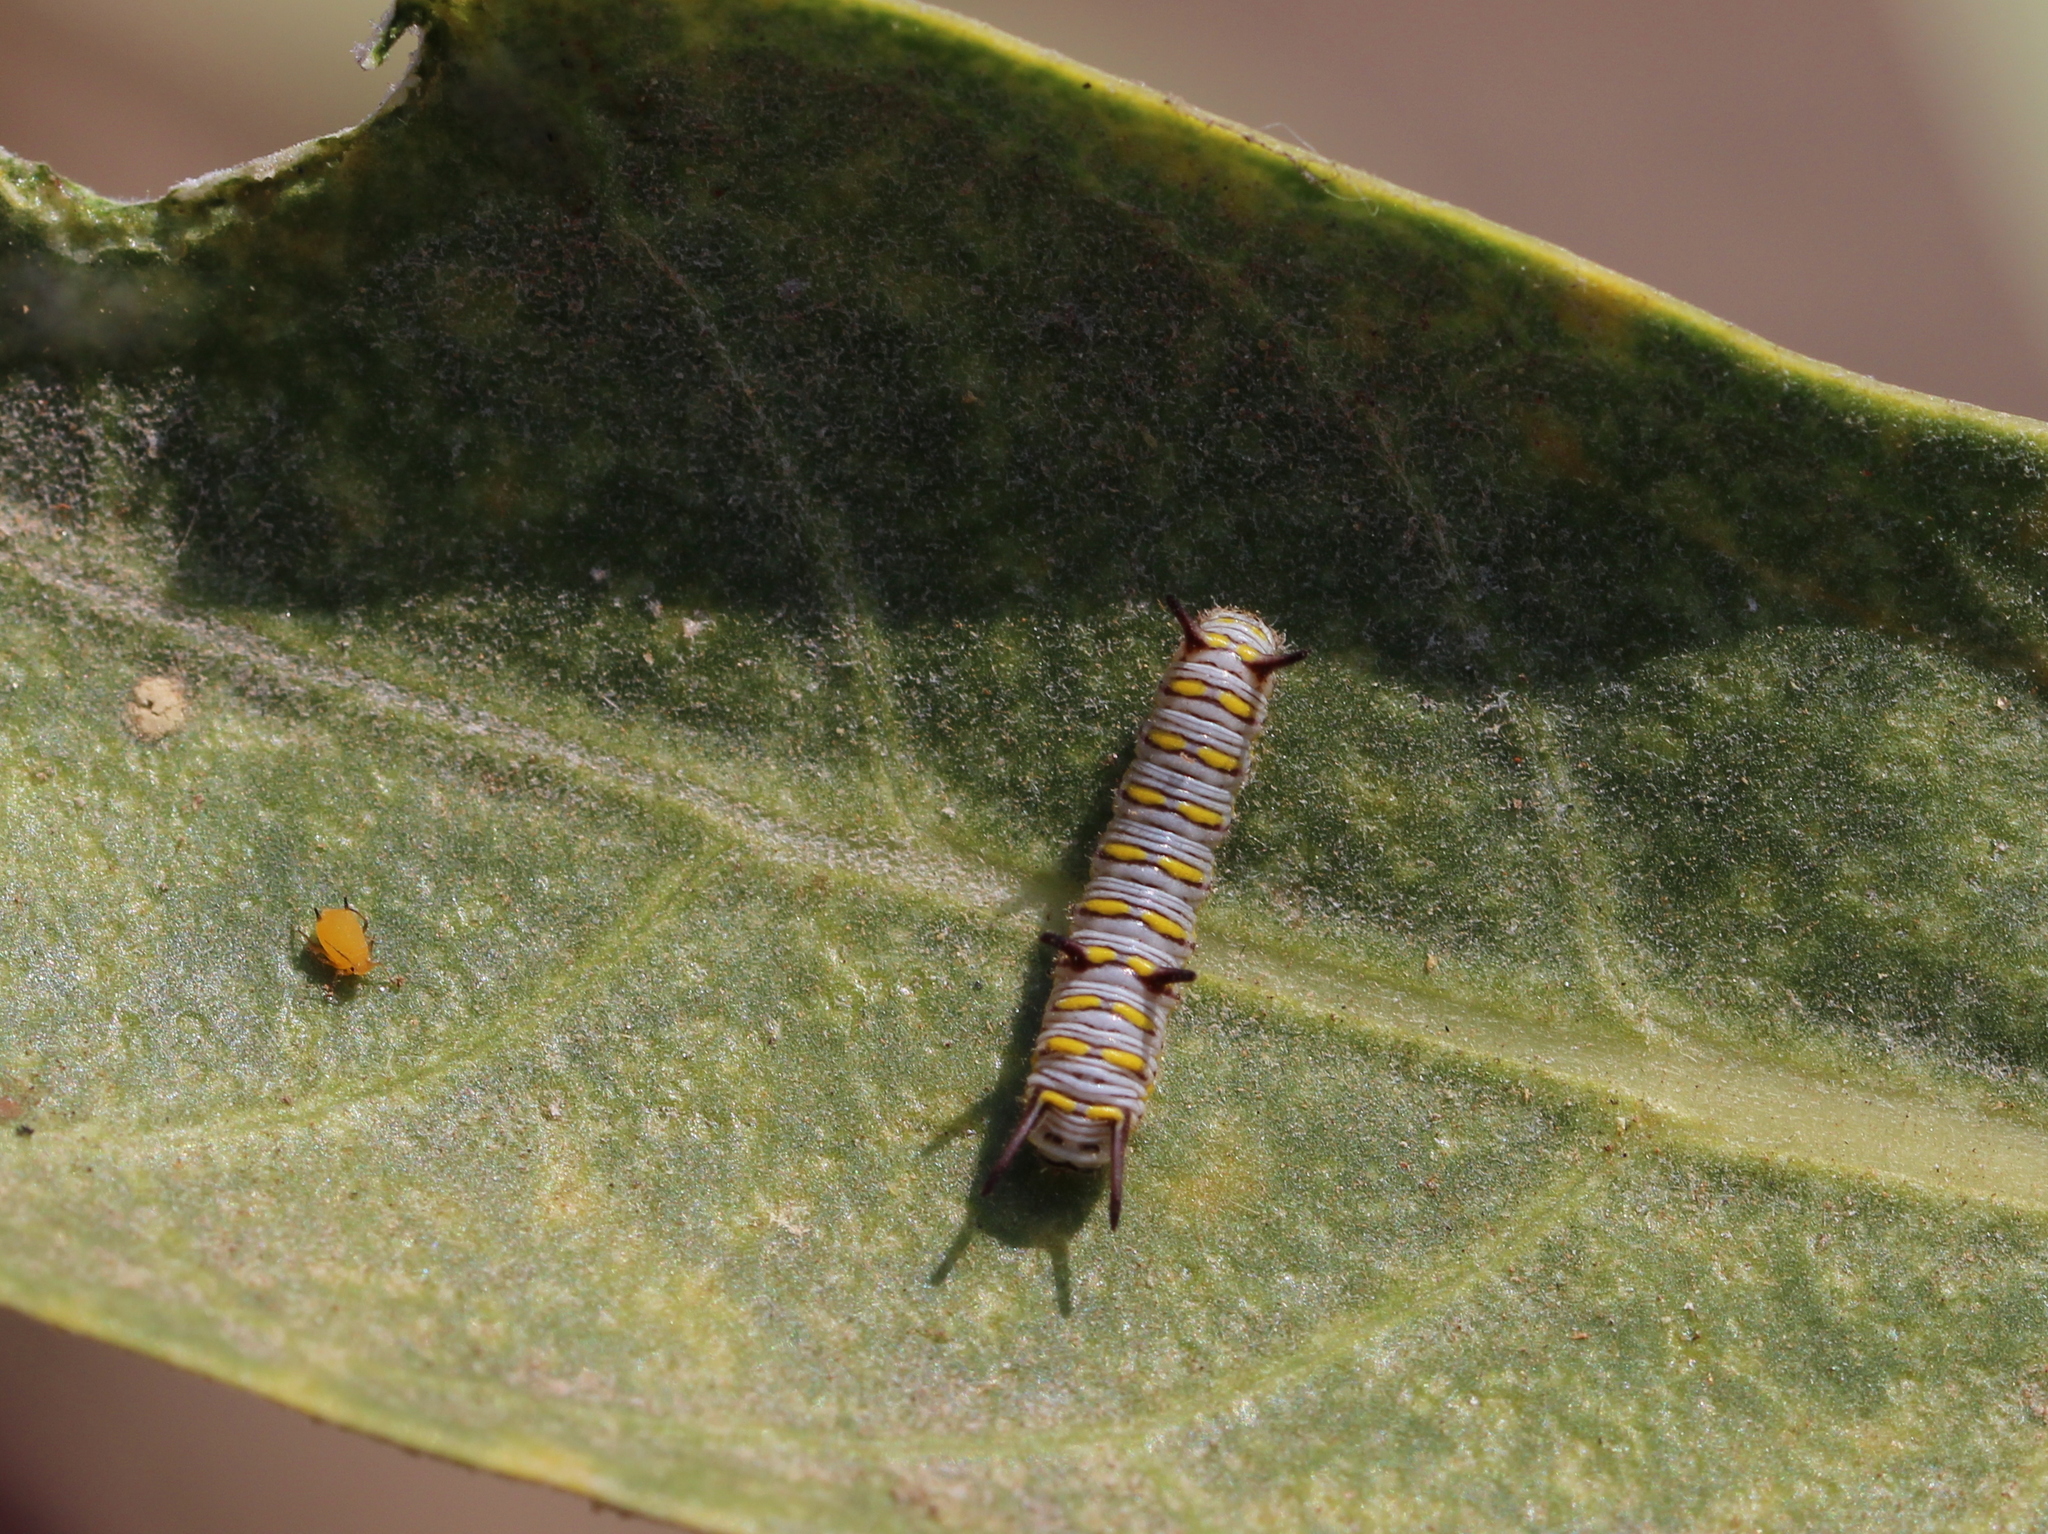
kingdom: Animalia
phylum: Arthropoda
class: Insecta
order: Lepidoptera
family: Nymphalidae
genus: Danaus
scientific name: Danaus chrysippus
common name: Plain tiger
